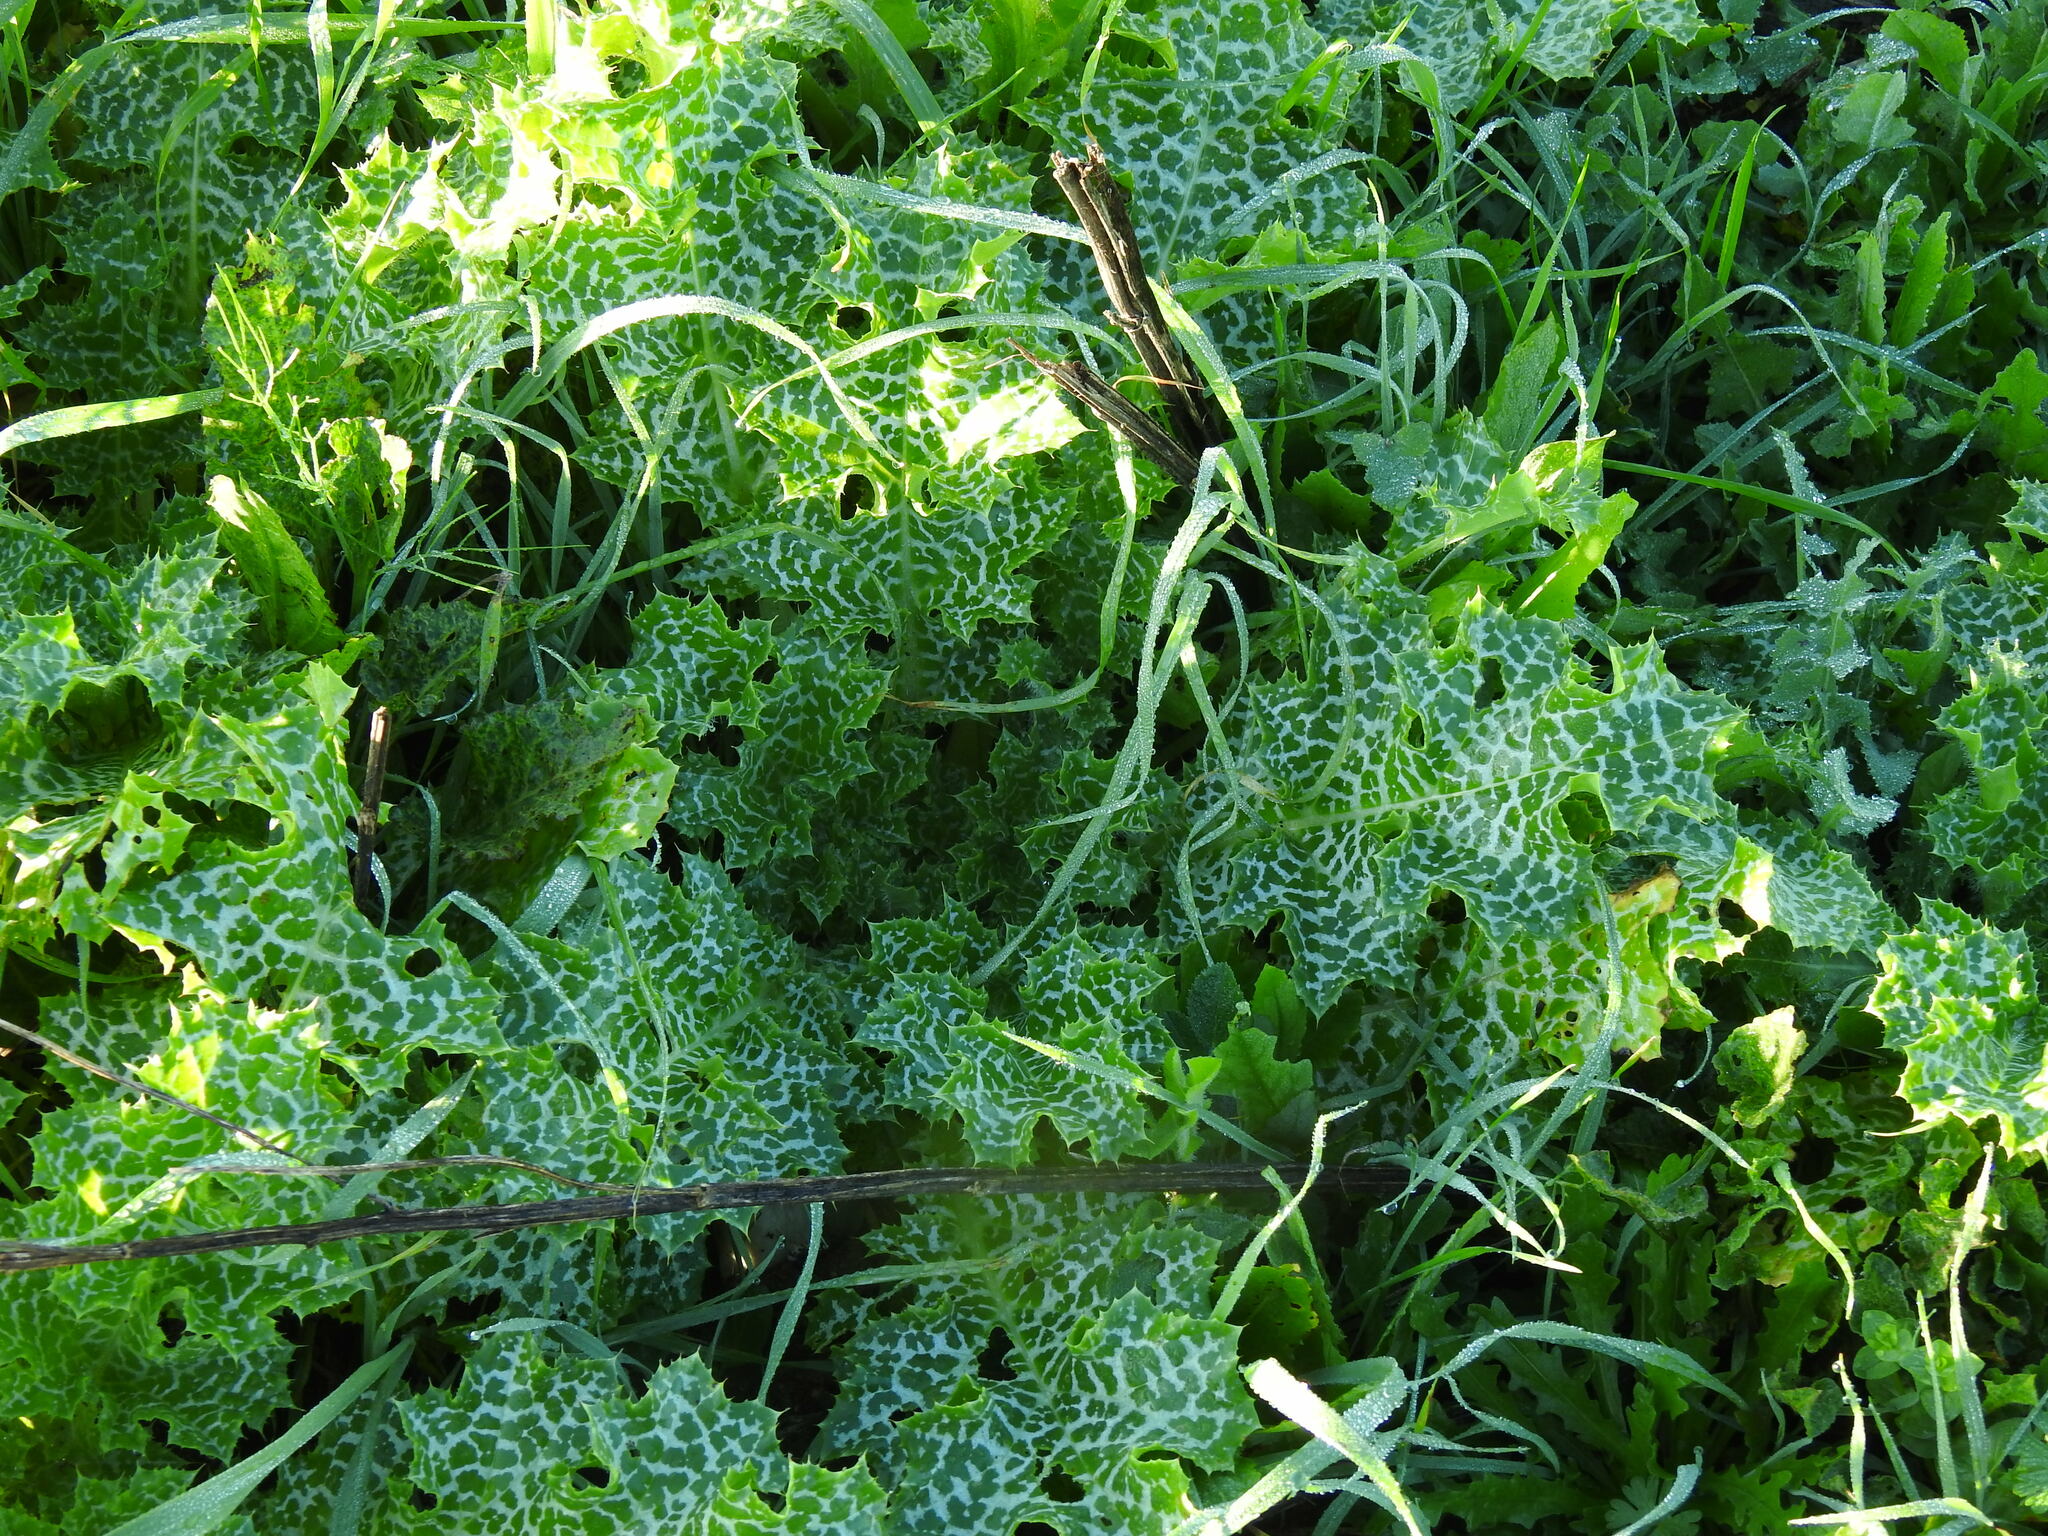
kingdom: Plantae
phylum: Tracheophyta
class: Magnoliopsida
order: Asterales
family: Asteraceae
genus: Silybum
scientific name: Silybum marianum
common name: Milk thistle
